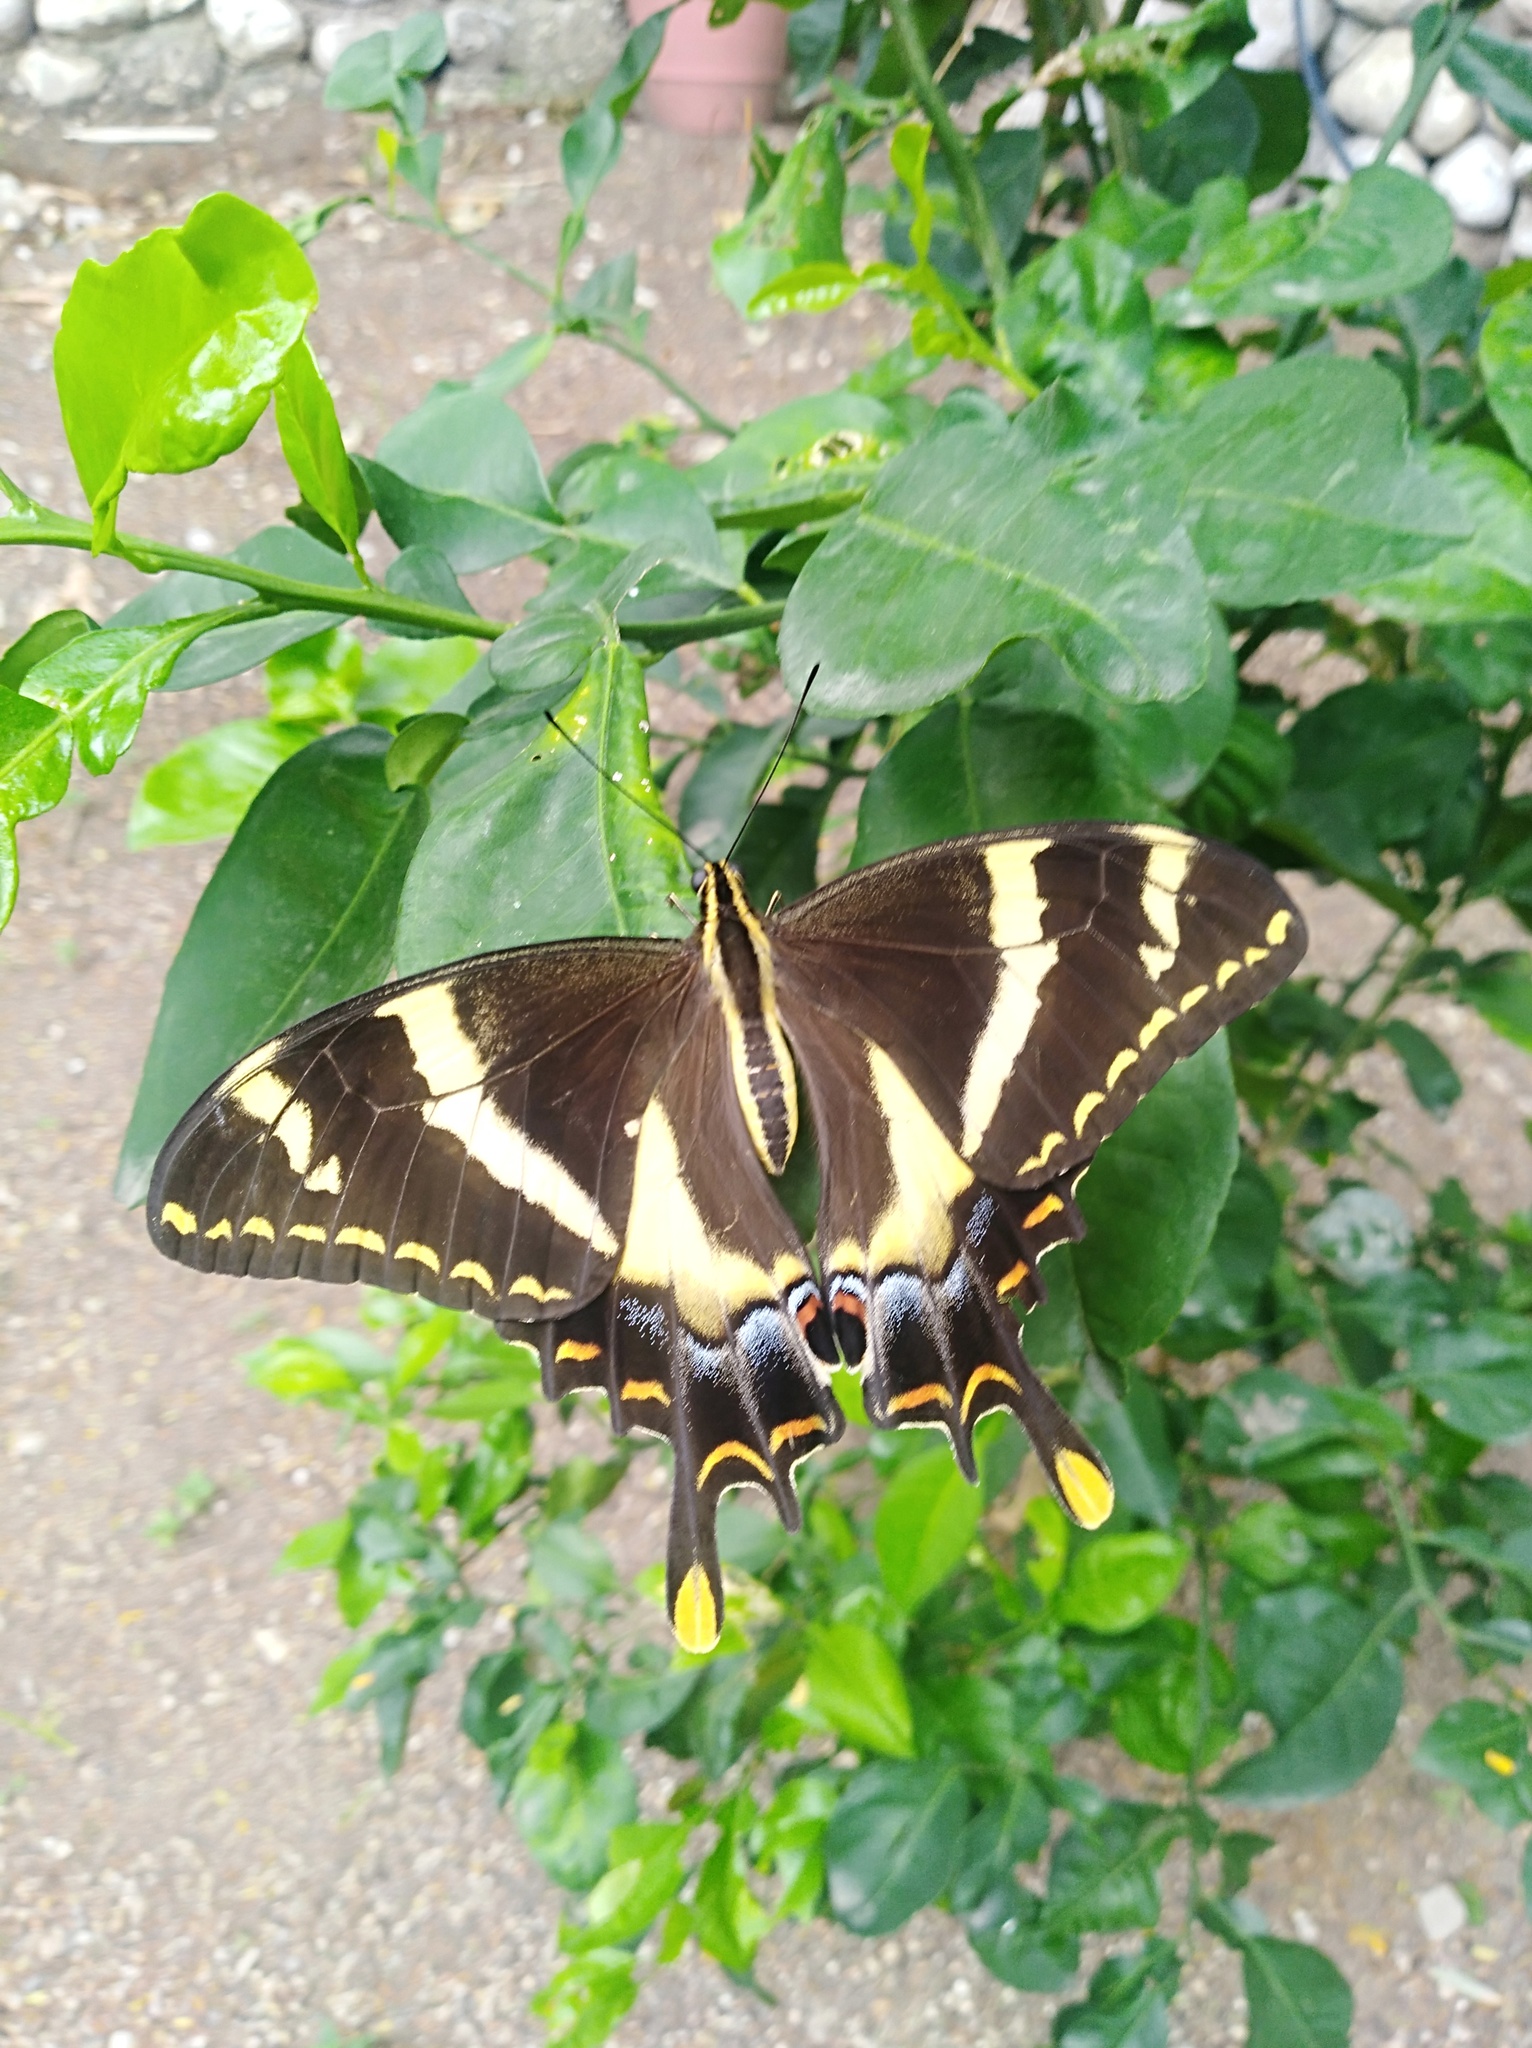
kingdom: Animalia
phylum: Arthropoda
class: Insecta
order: Lepidoptera
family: Papilionidae
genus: Papilio
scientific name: Papilio machaonides
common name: Machaonides swallowtail
